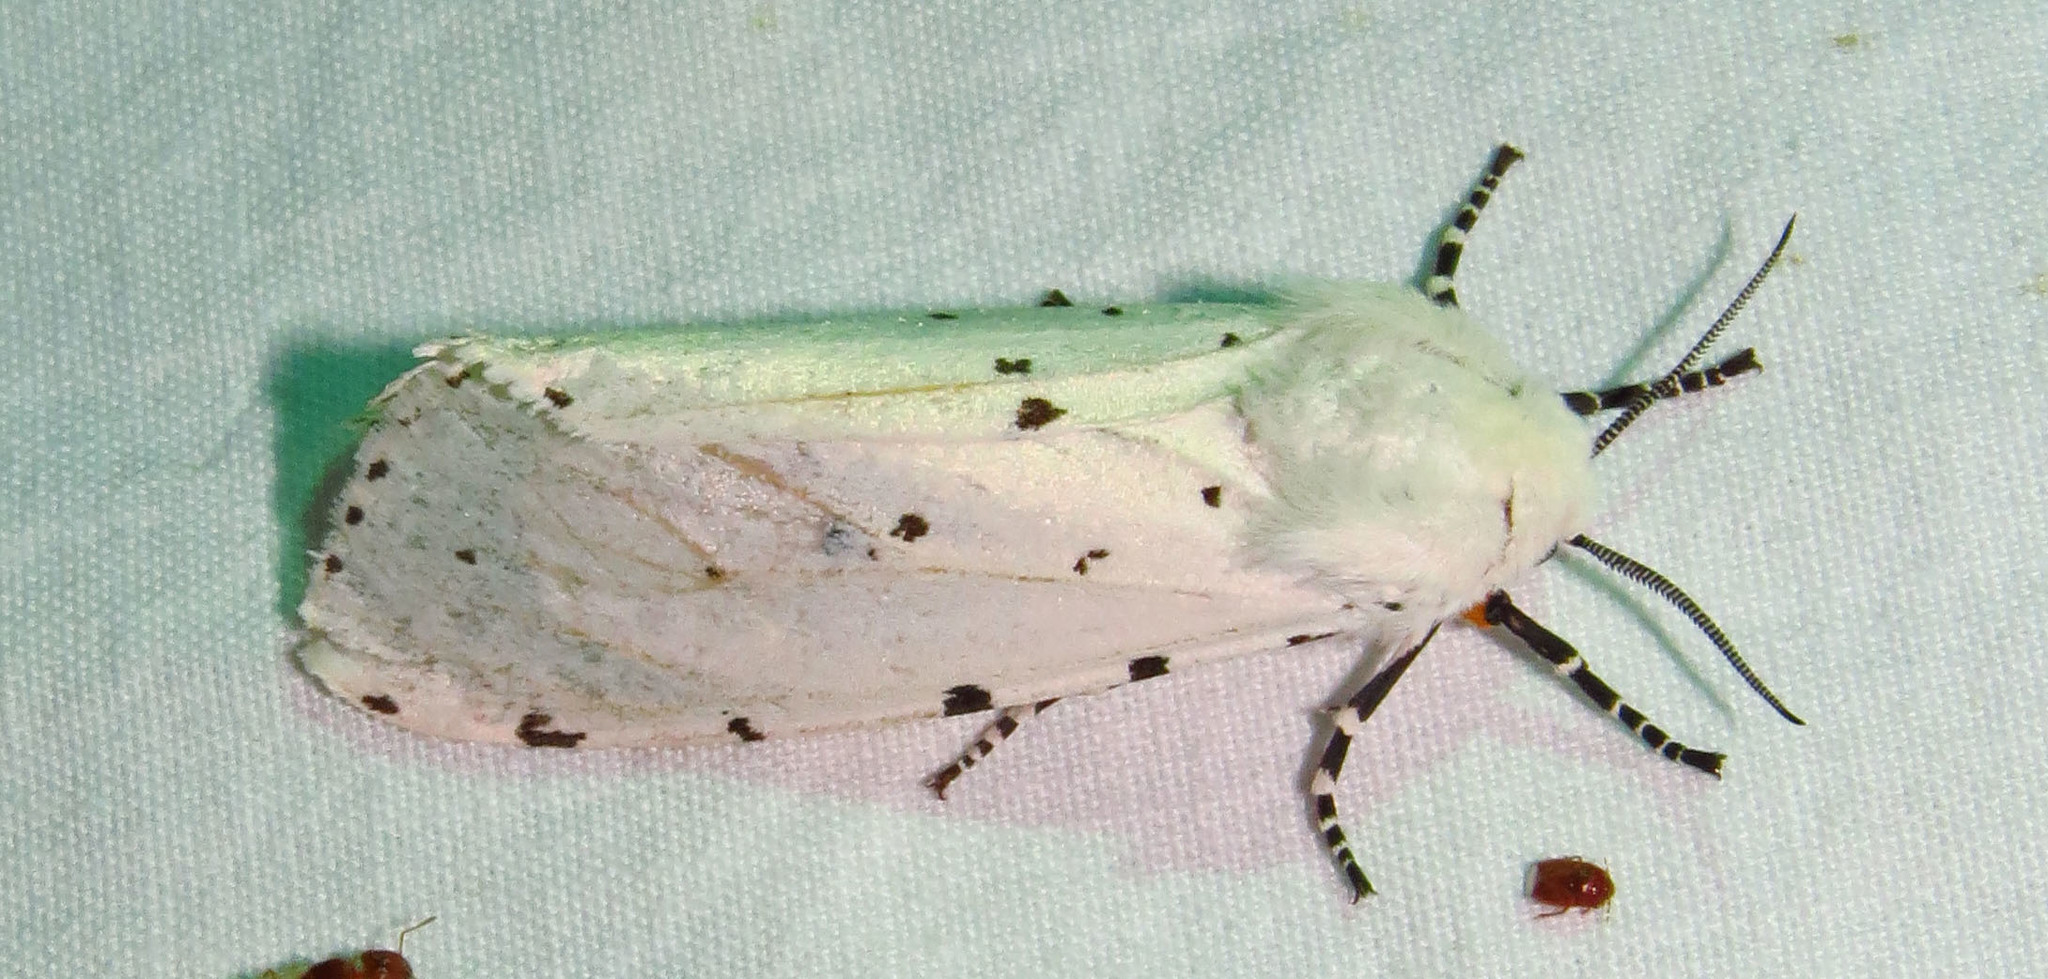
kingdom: Animalia
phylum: Arthropoda
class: Insecta
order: Lepidoptera
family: Erebidae
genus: Estigmene
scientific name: Estigmene acrea
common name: Salt marsh moth
